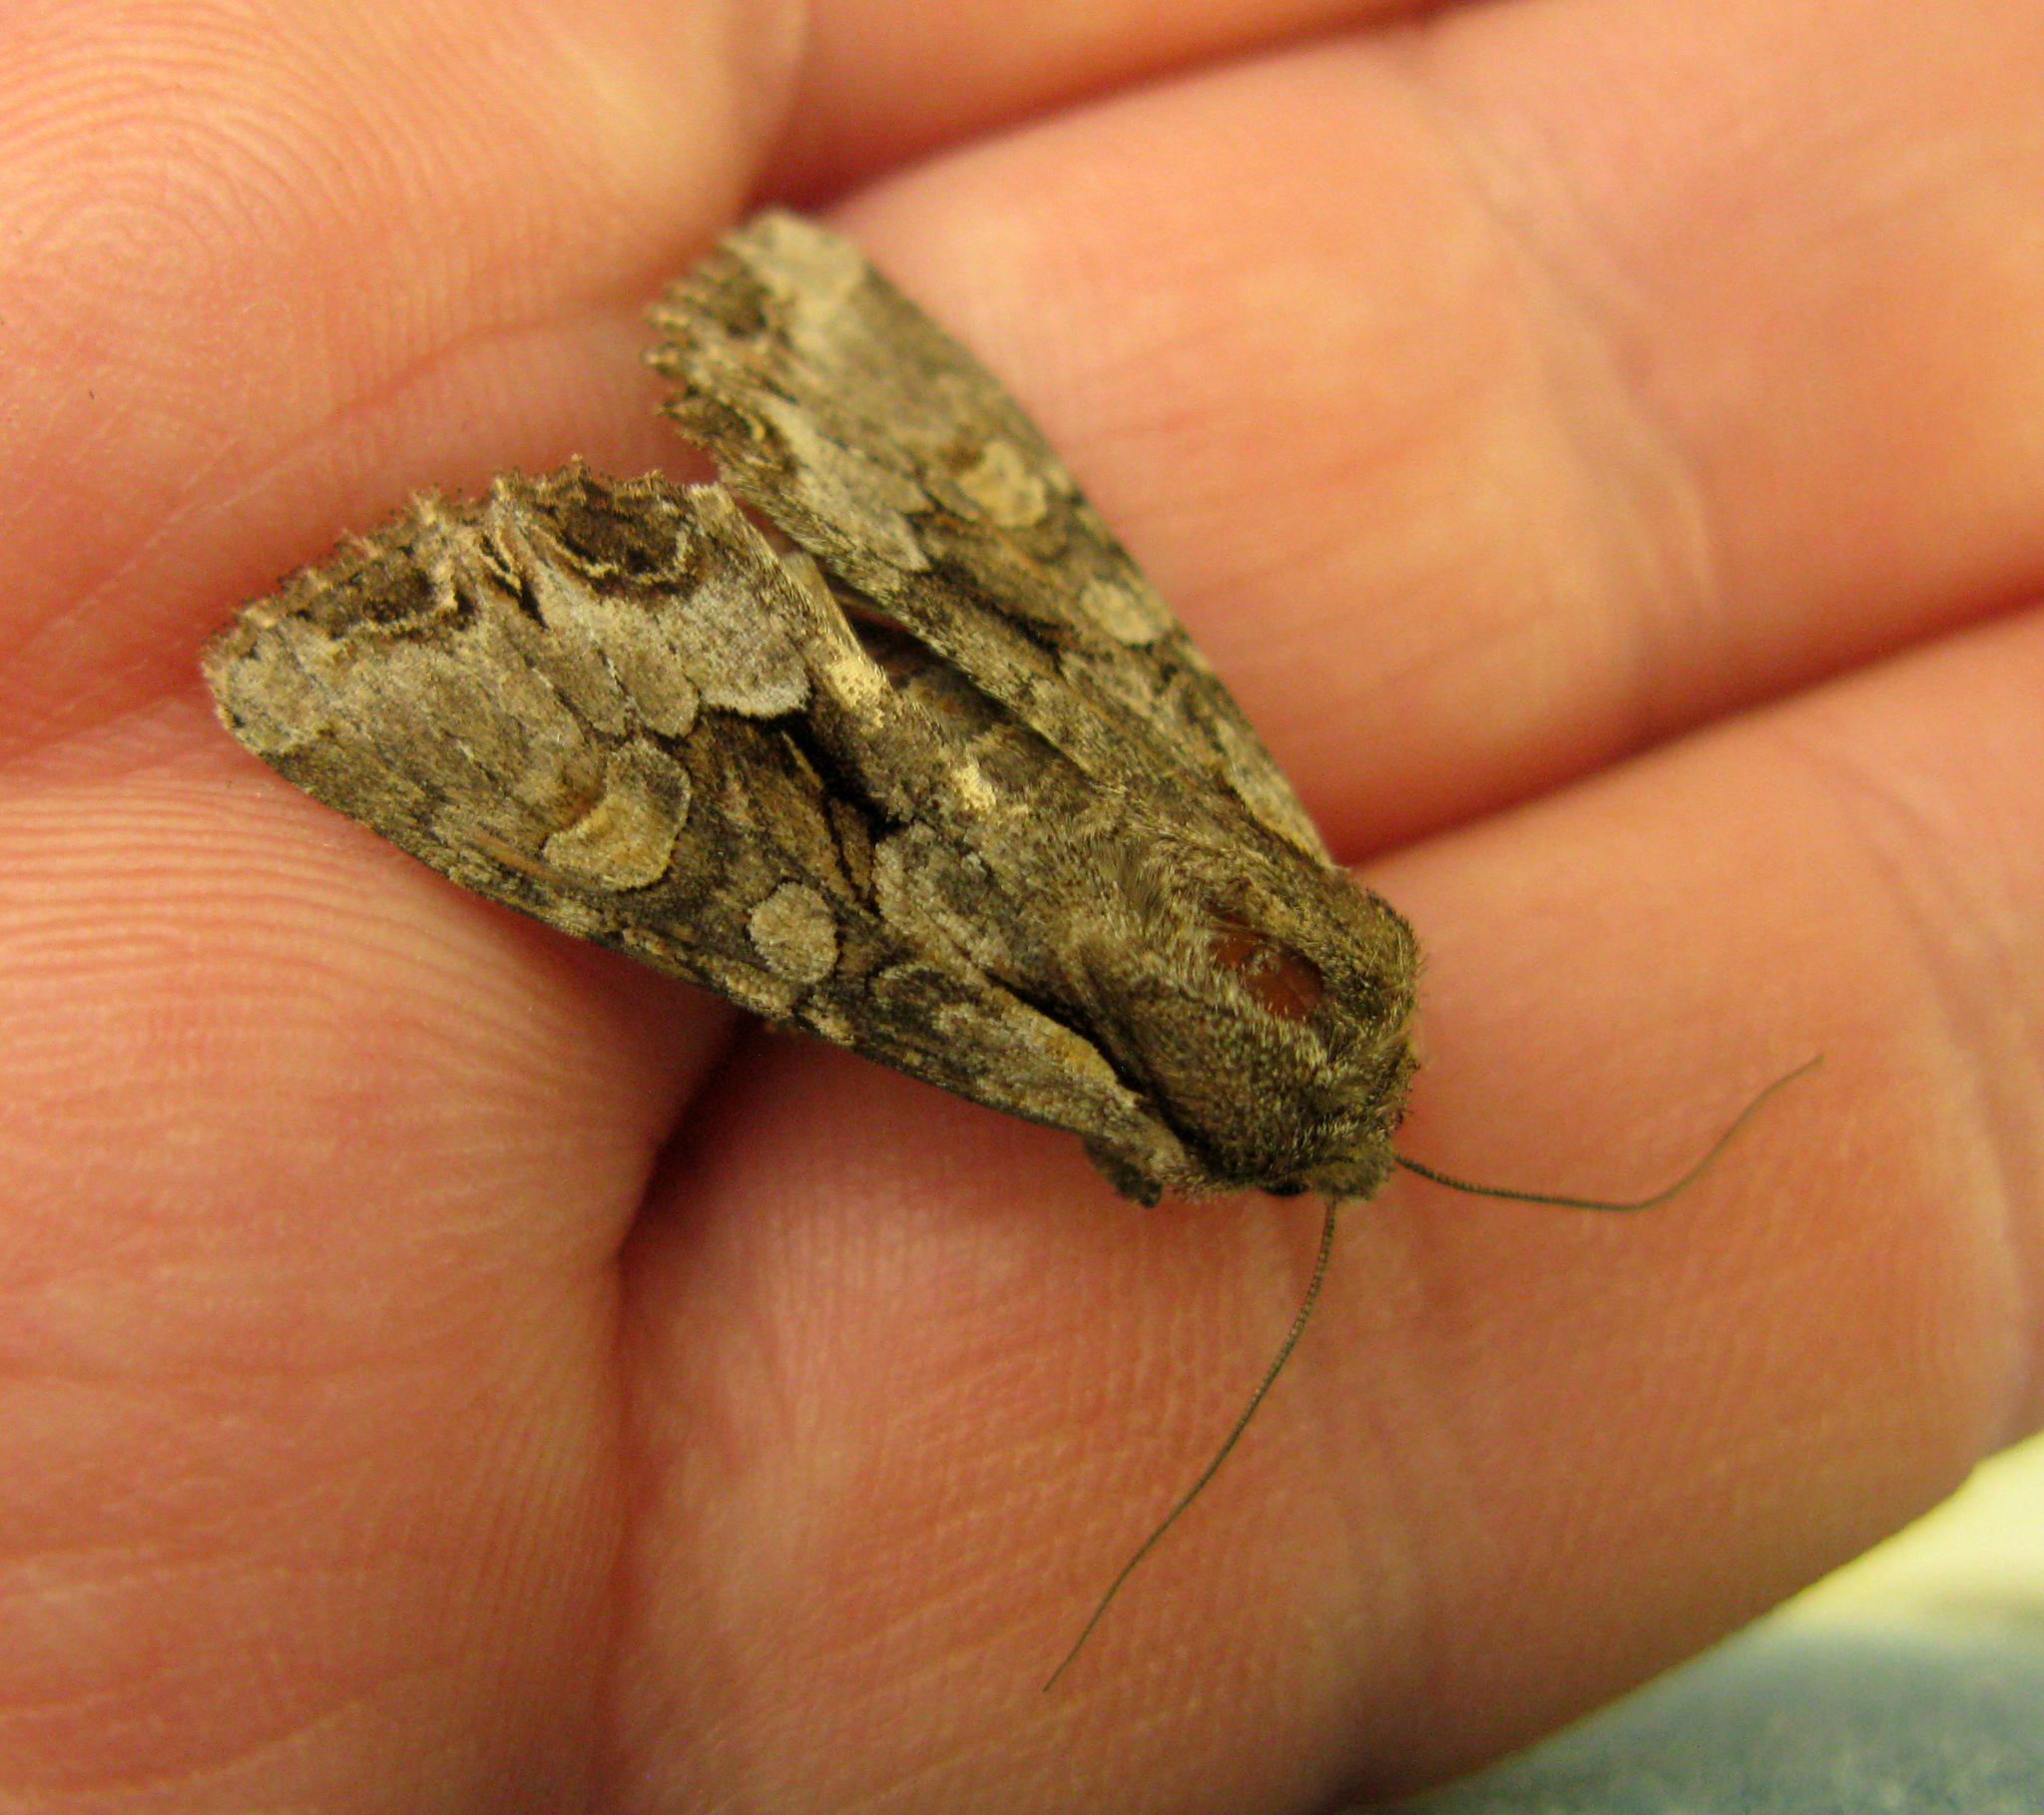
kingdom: Animalia
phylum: Arthropoda
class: Insecta
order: Lepidoptera
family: Noctuidae
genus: Lacanobia
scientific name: Lacanobia w-latinum
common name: Light brocade
